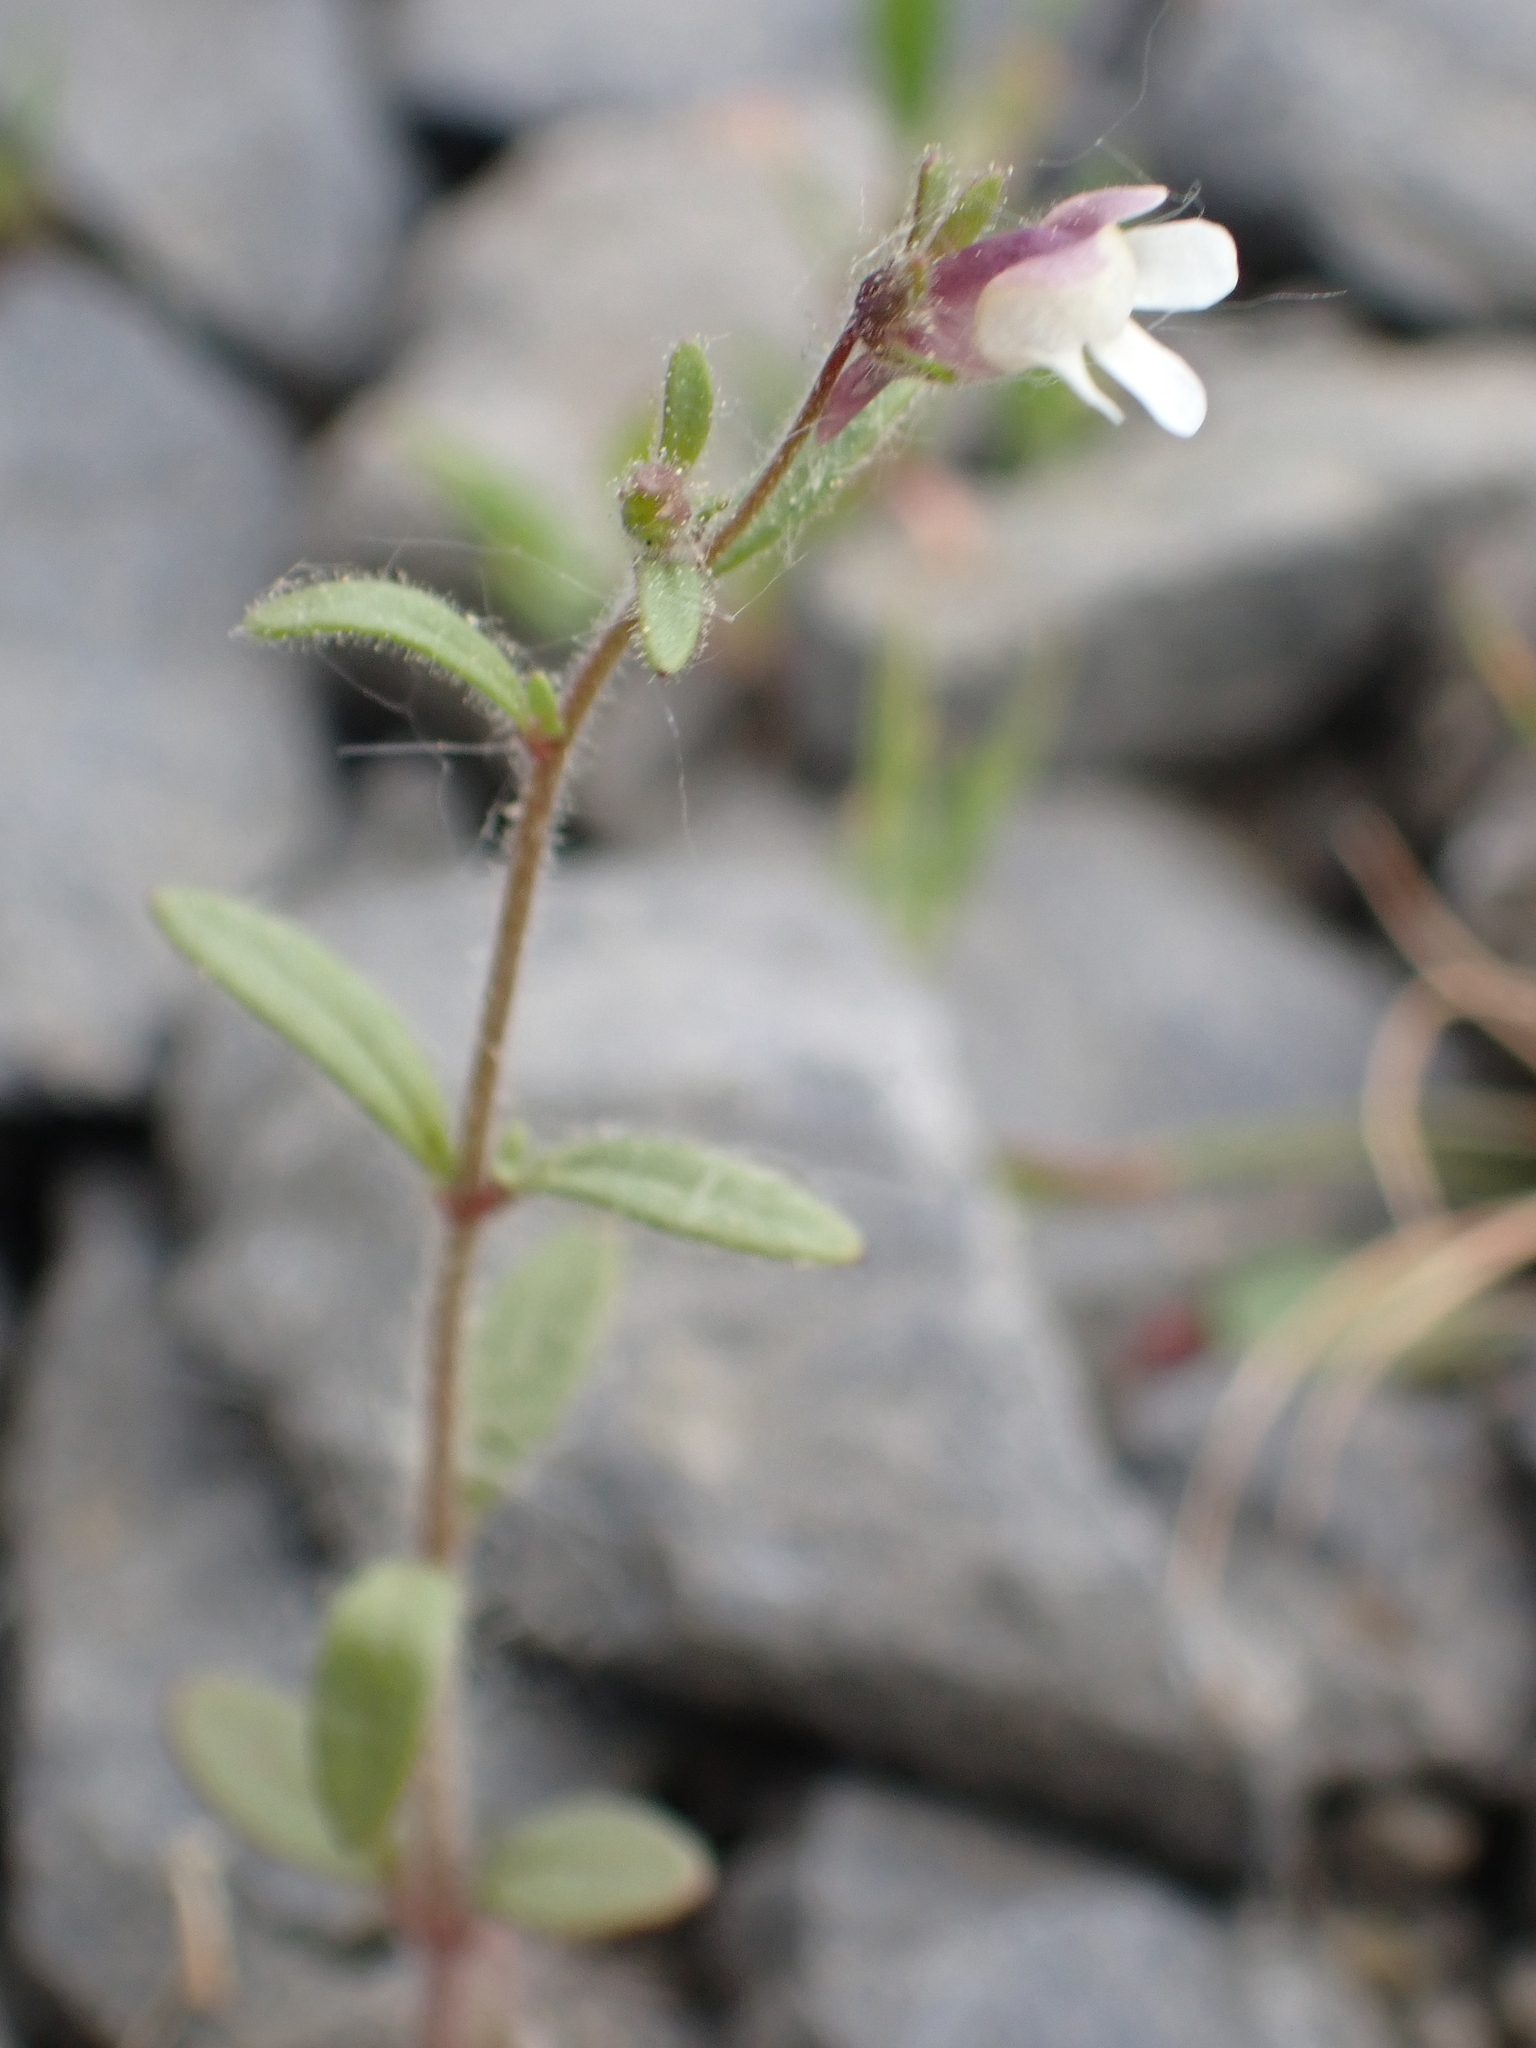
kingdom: Plantae
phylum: Tracheophyta
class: Magnoliopsida
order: Lamiales
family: Plantaginaceae
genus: Chaenorhinum
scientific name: Chaenorhinum minus
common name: Dwarf snapdragon
